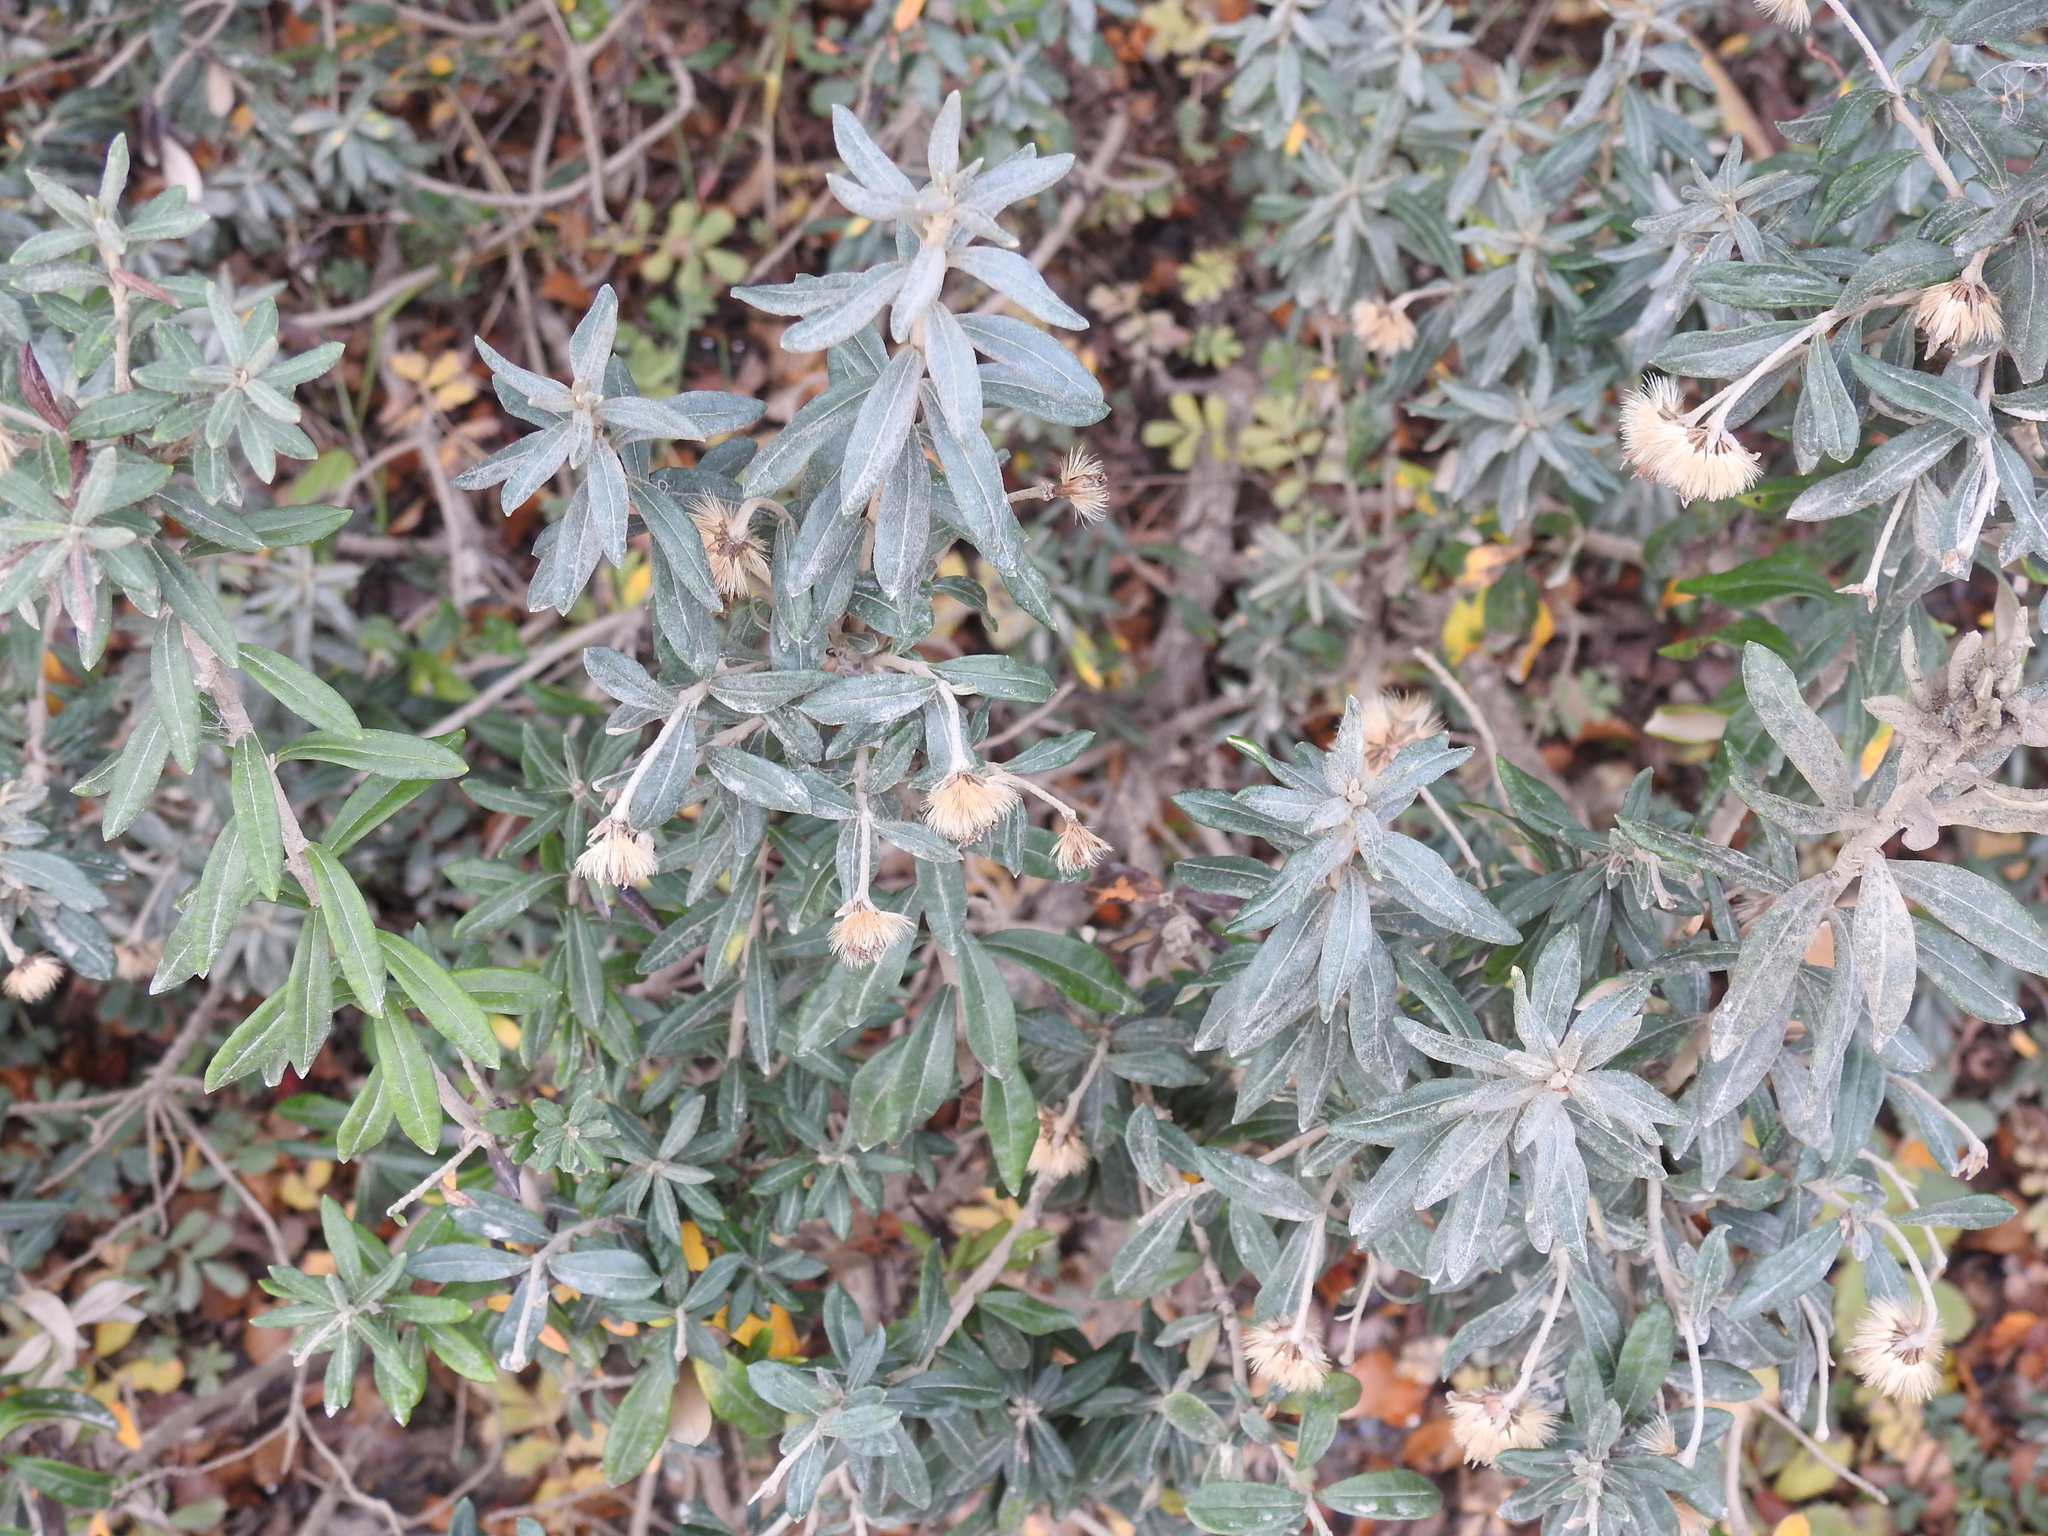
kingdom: Plantae
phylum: Tracheophyta
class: Magnoliopsida
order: Asterales
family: Asteraceae
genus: Chiliotrichum
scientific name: Chiliotrichum diffusum
